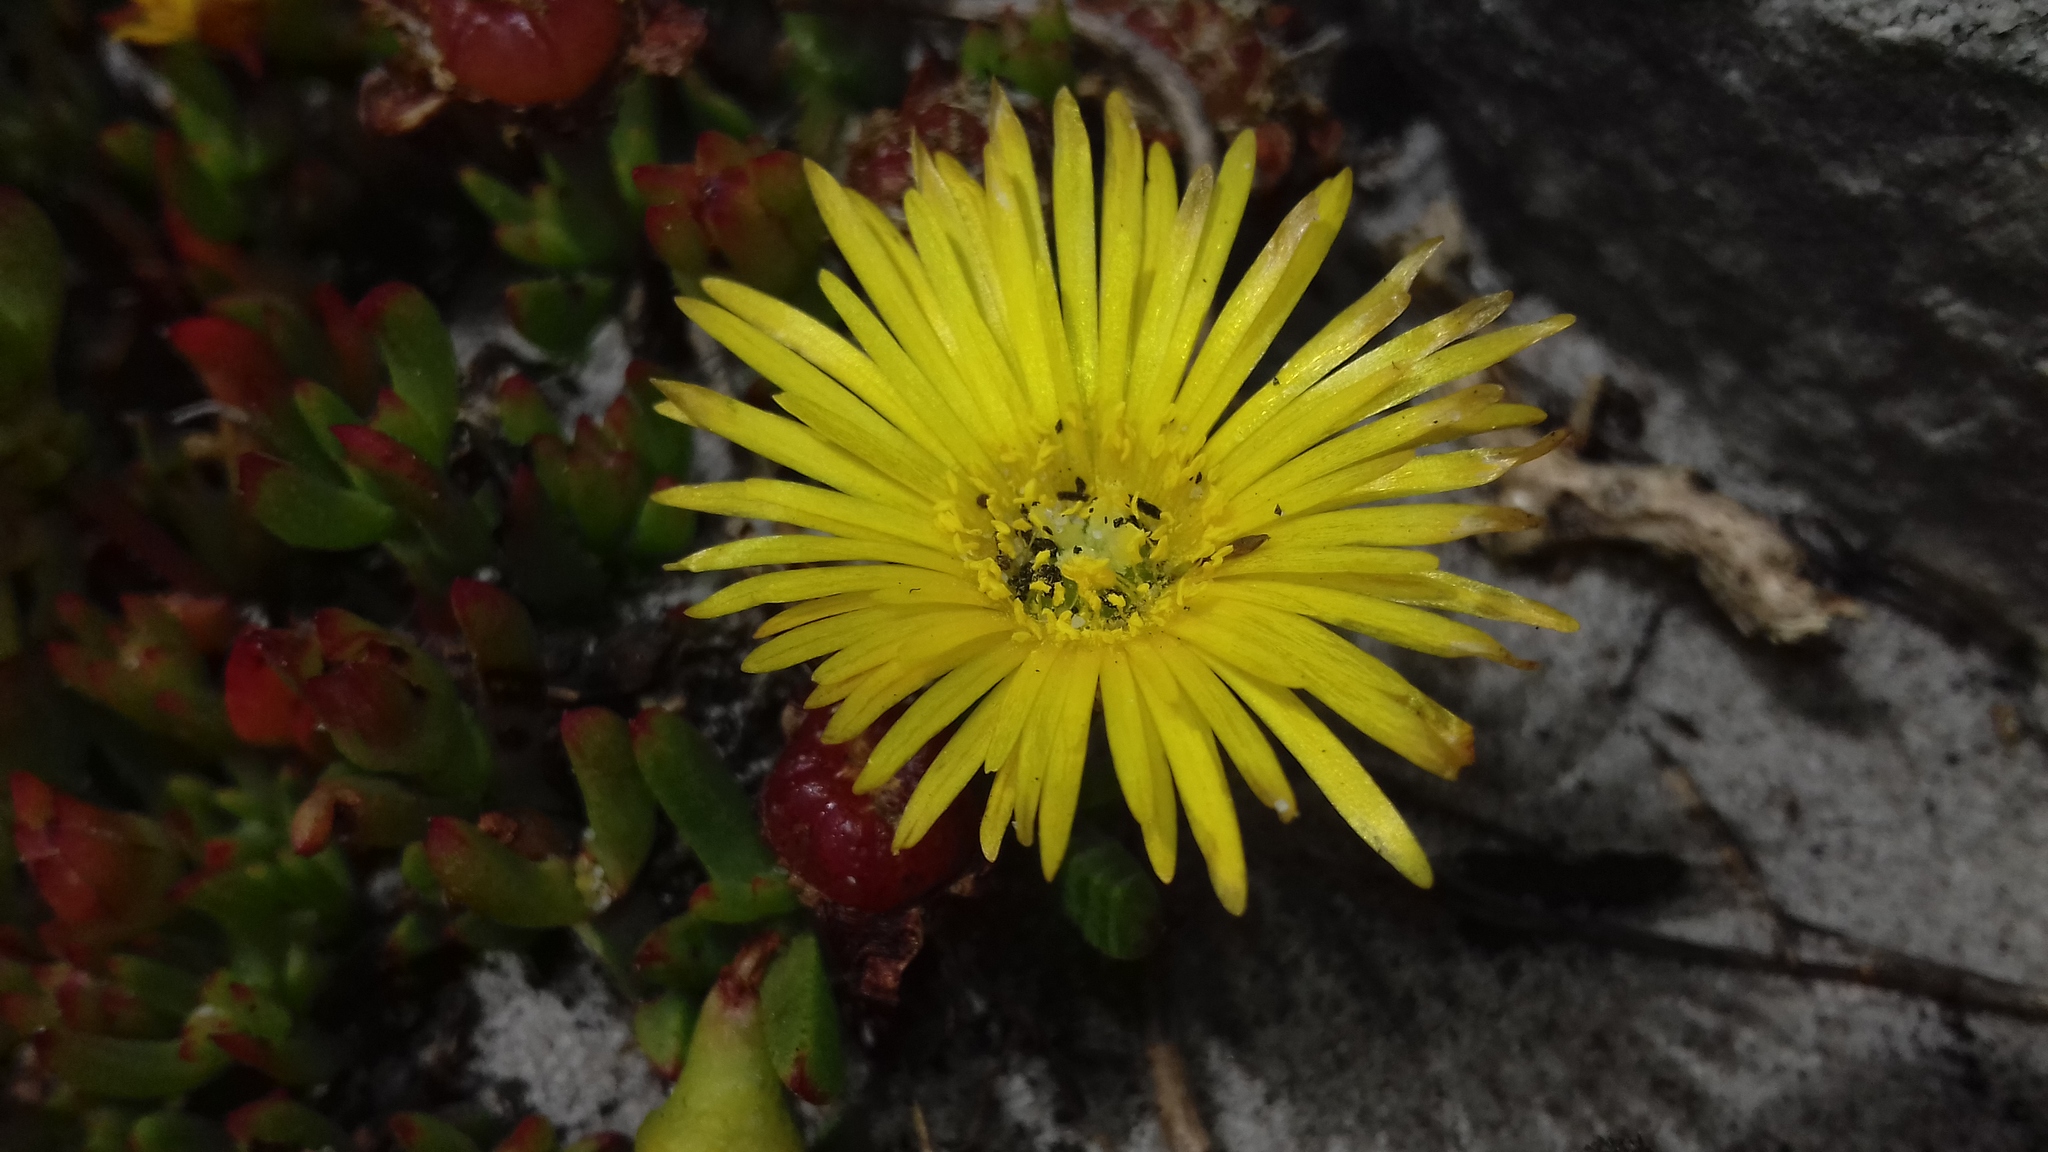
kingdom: Plantae
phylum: Tracheophyta
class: Magnoliopsida
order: Caryophyllales
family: Aizoaceae
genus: Lampranthus
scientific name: Lampranthus promontorii
